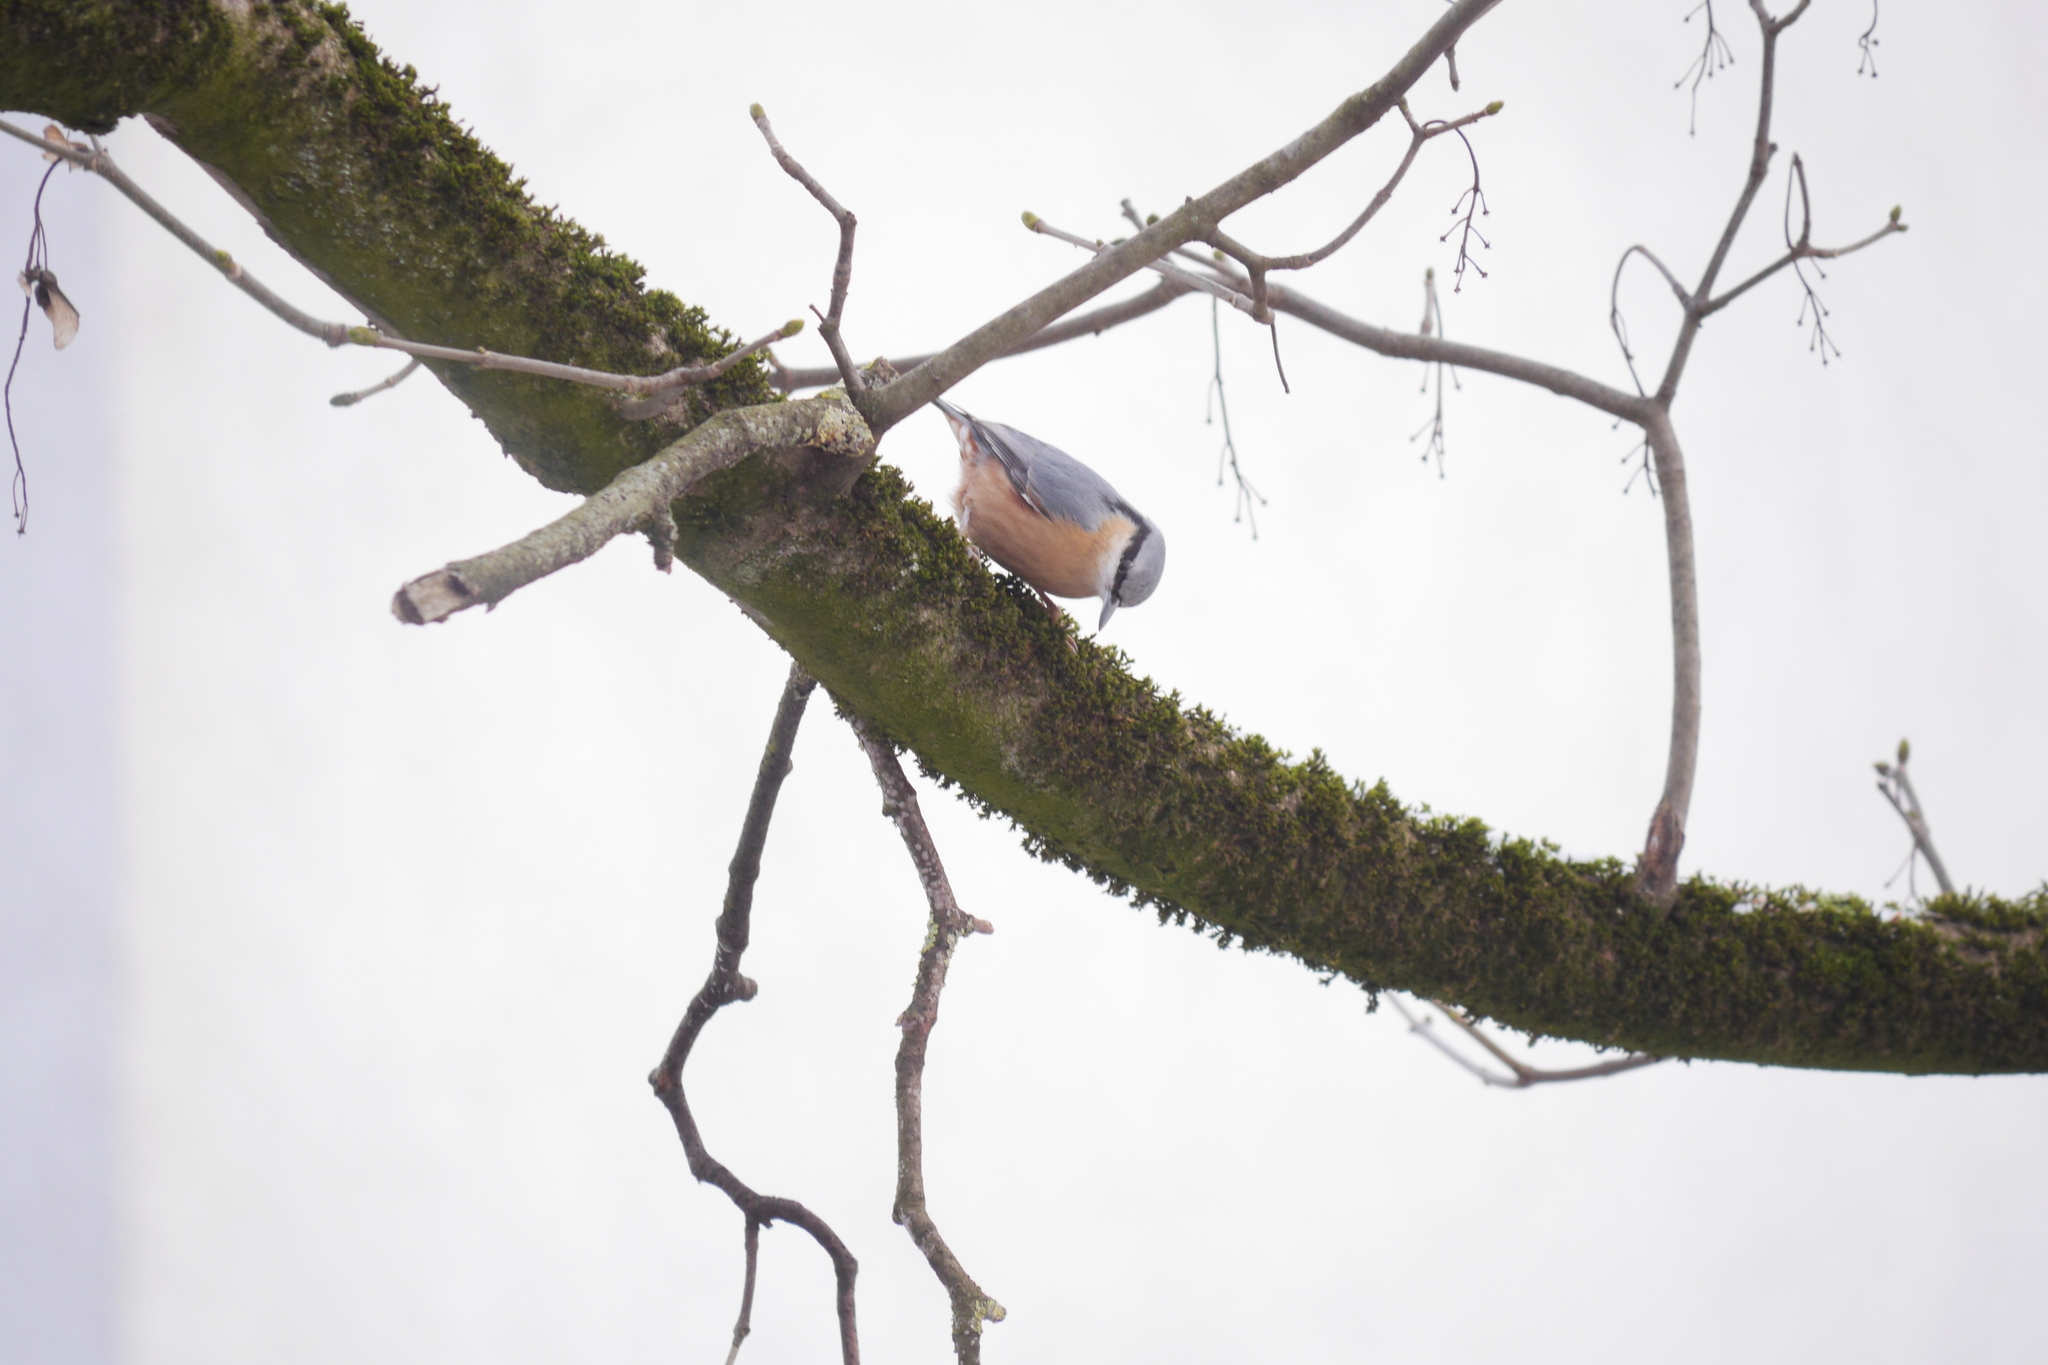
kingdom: Animalia
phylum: Chordata
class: Aves
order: Passeriformes
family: Sittidae
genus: Sitta
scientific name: Sitta europaea
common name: Eurasian nuthatch
